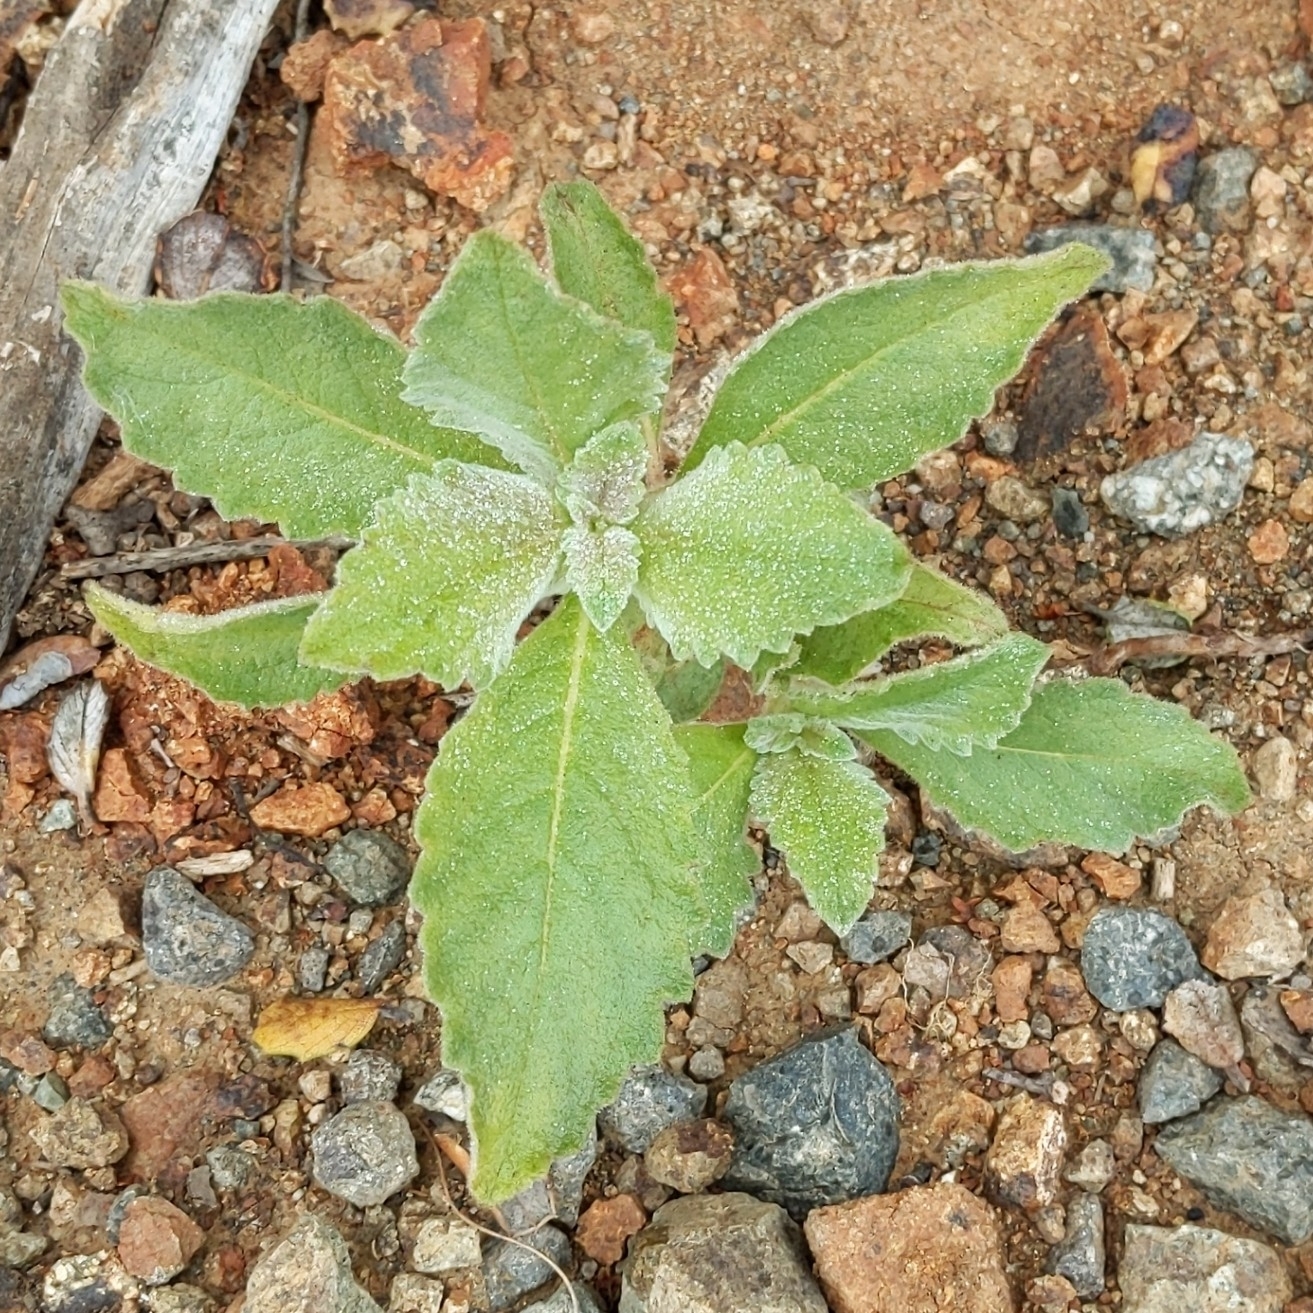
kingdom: Plantae
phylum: Tracheophyta
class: Magnoliopsida
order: Boraginales
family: Namaceae
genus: Eriodictyon
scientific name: Eriodictyon crassifolium
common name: Thick-leaf yerba-santa
